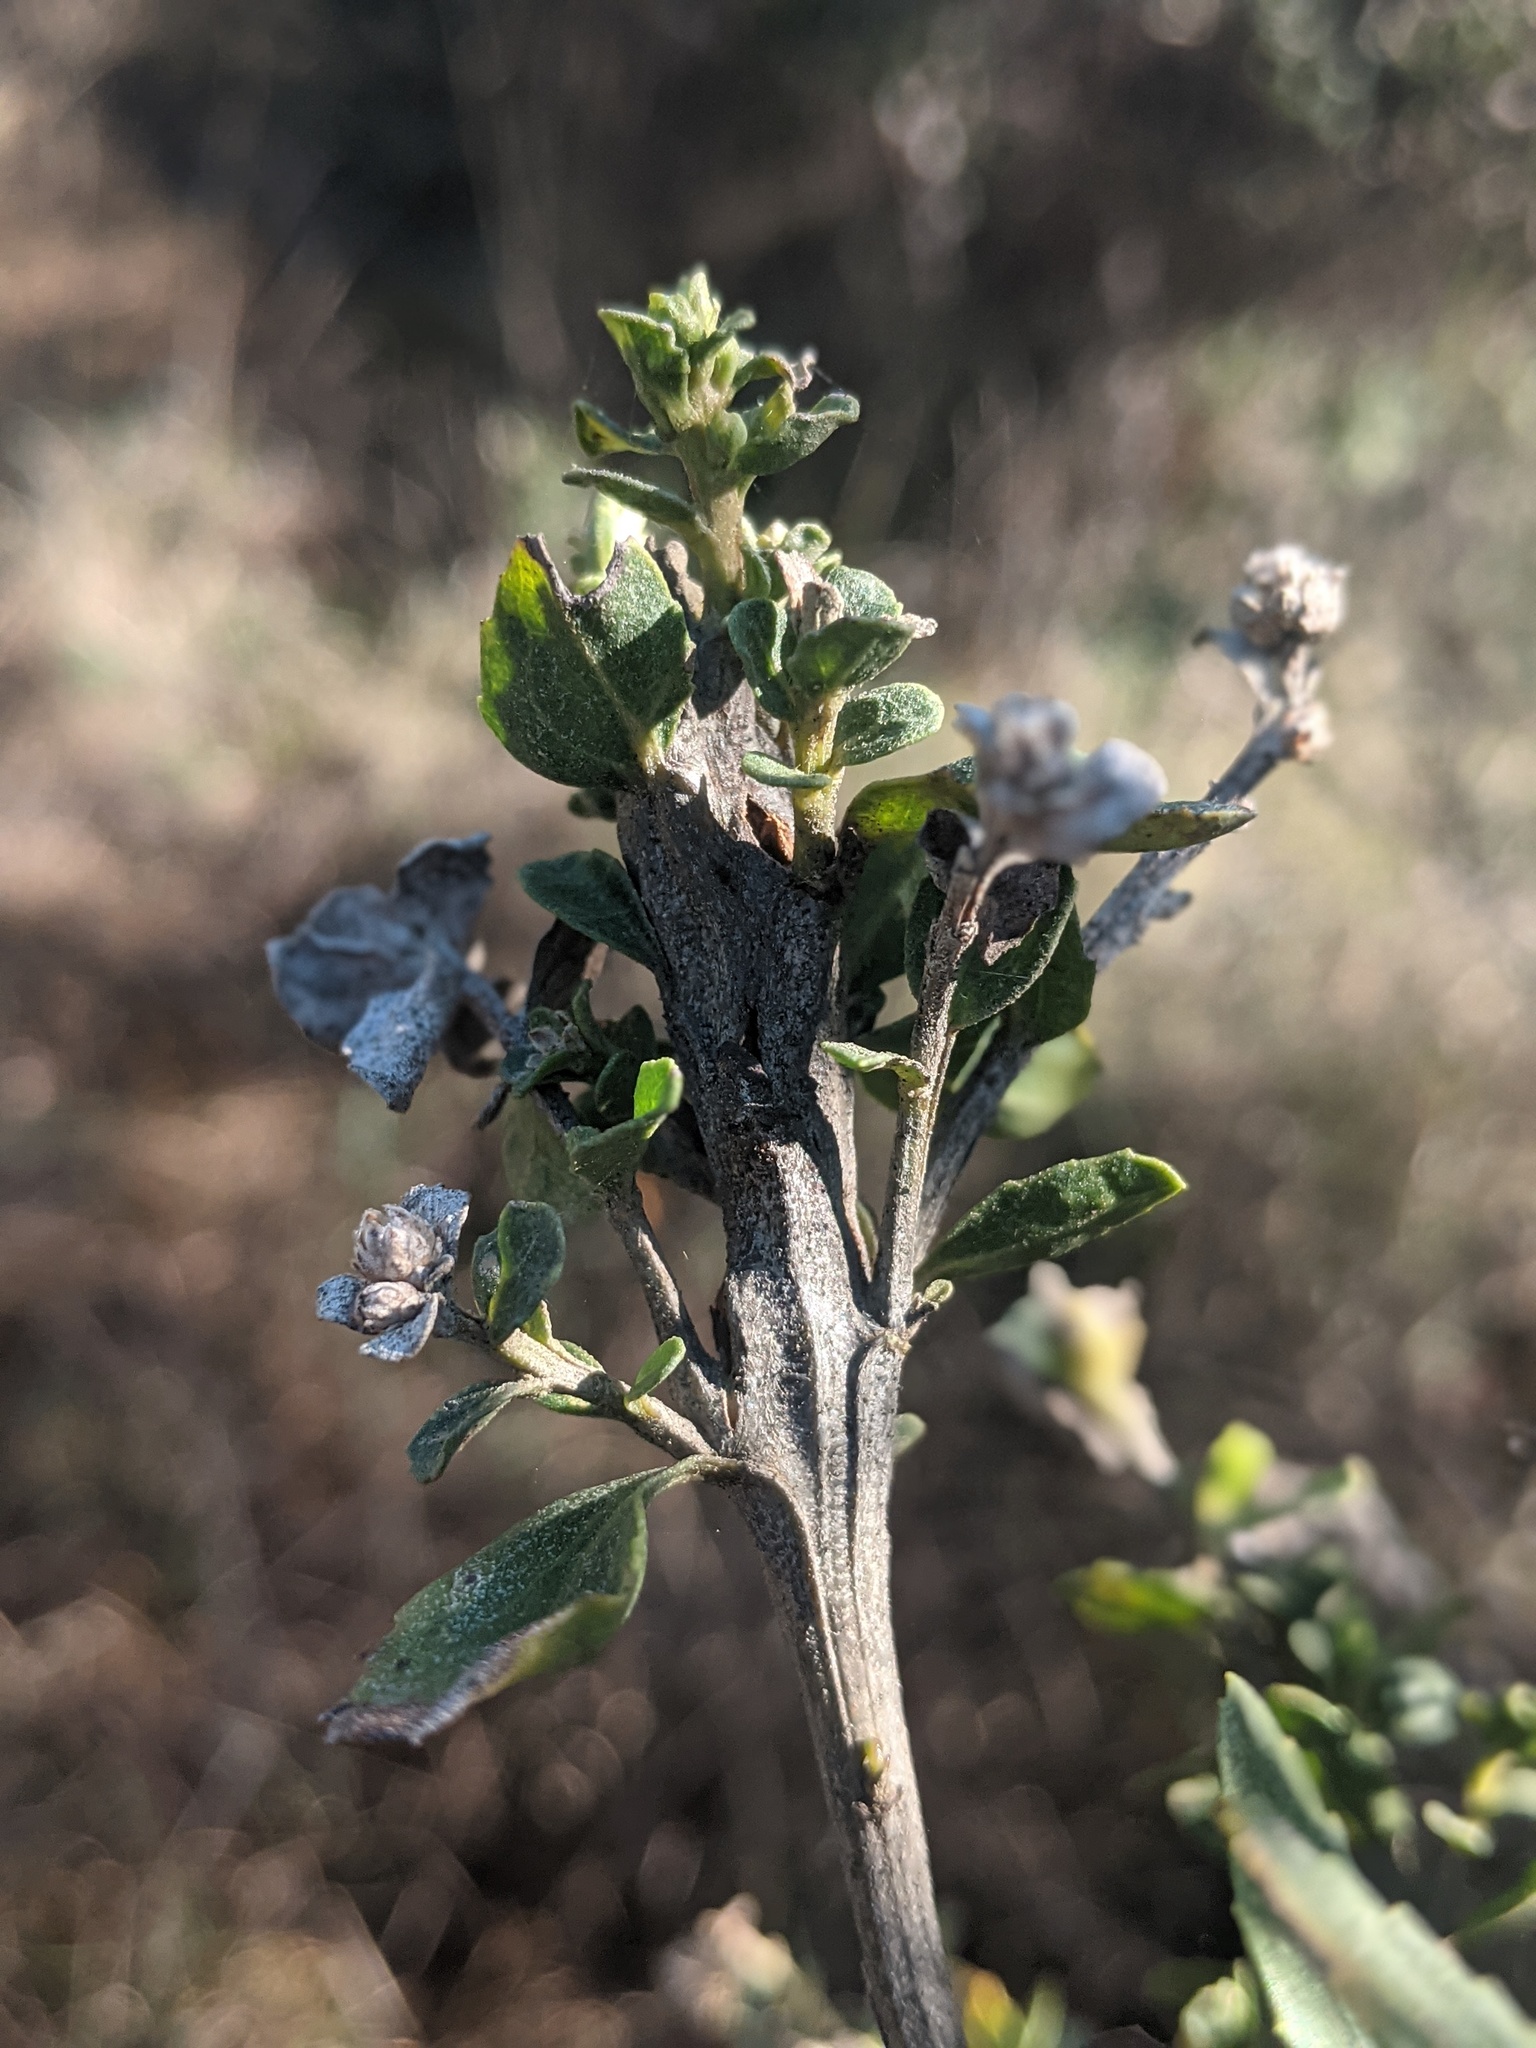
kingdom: Animalia
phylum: Arthropoda
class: Insecta
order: Lepidoptera
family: Gelechiidae
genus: Gnorimoschema
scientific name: Gnorimoschema baccharisella
